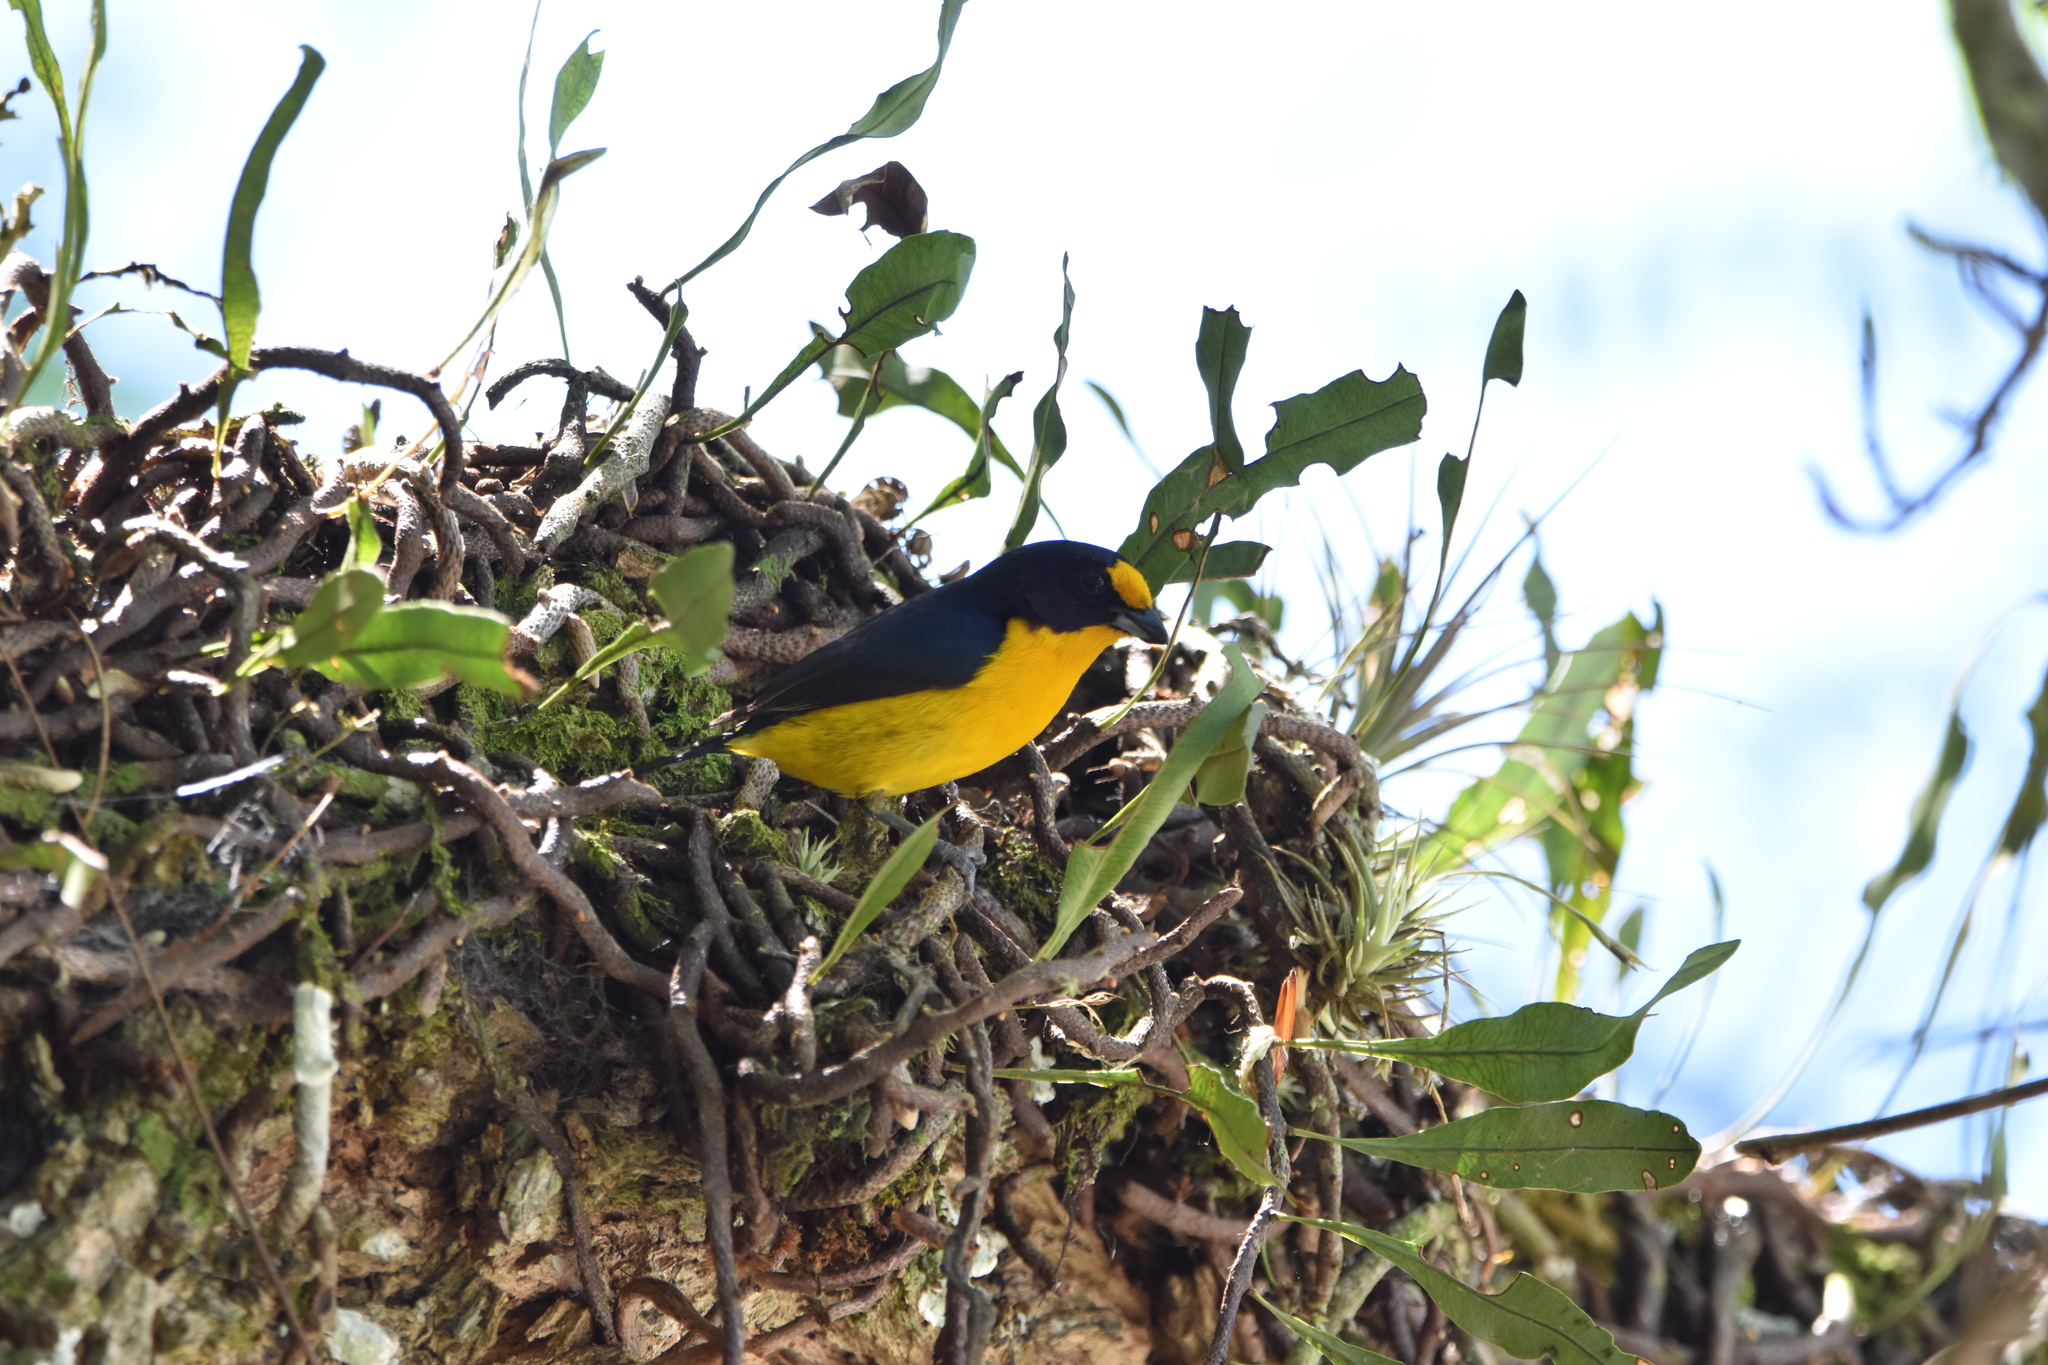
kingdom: Animalia
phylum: Chordata
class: Aves
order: Passeriformes
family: Fringillidae
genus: Euphonia
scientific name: Euphonia violacea
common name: Violaceous euphonia
